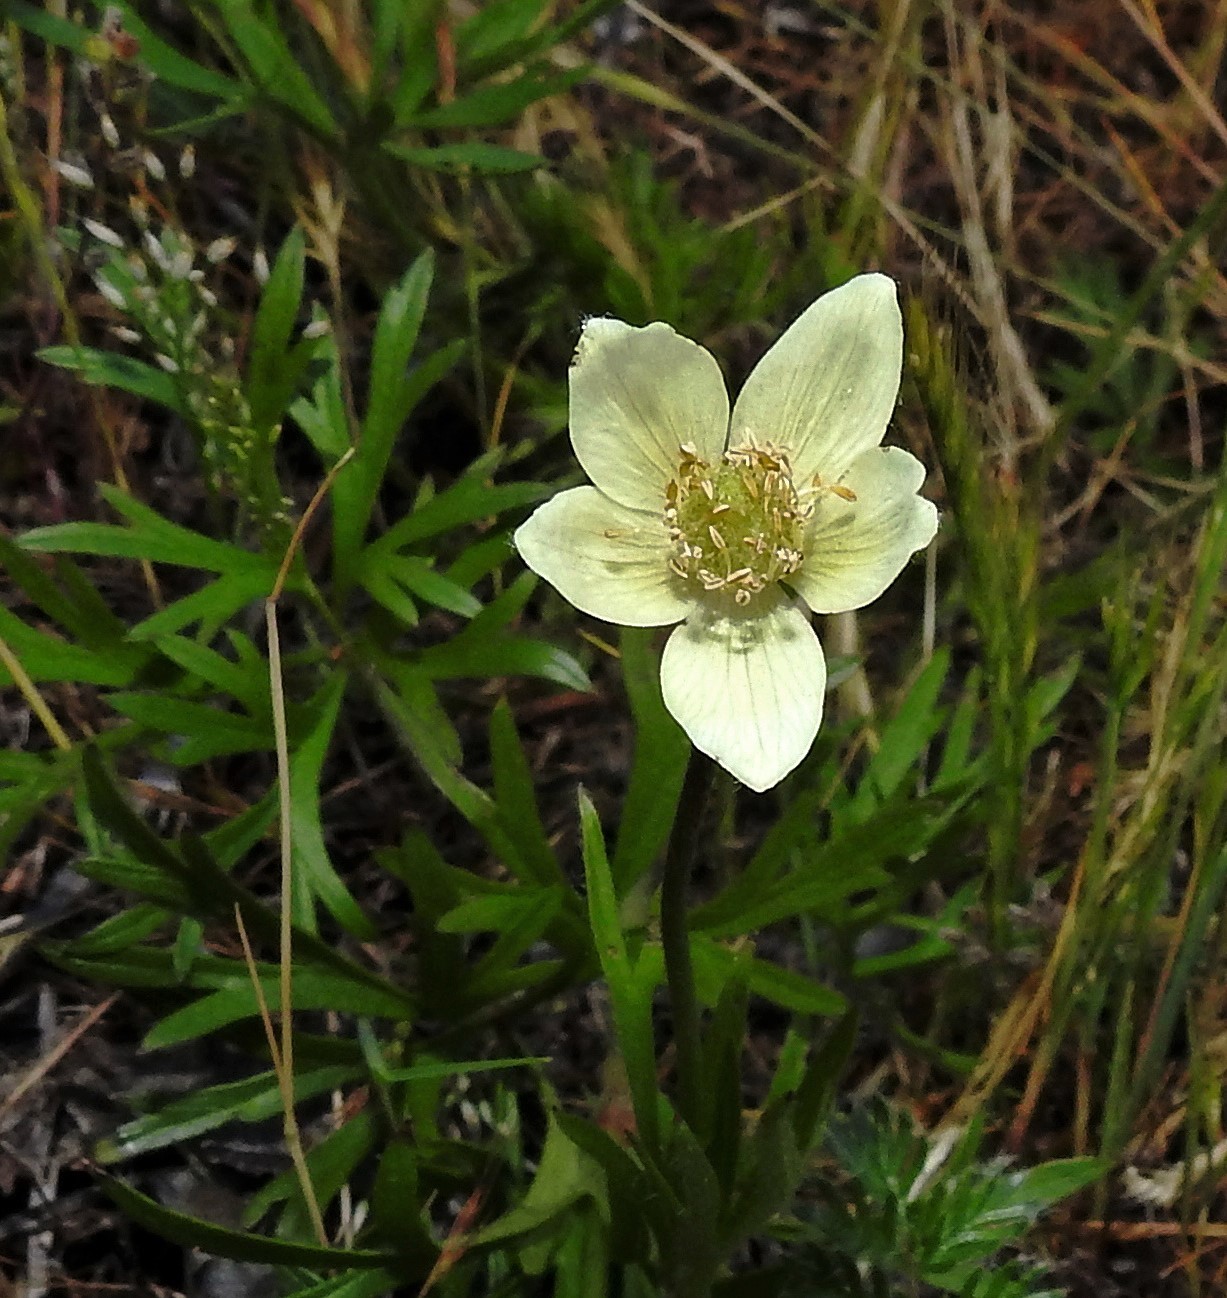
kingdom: Plantae
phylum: Tracheophyta
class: Magnoliopsida
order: Ranunculales
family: Ranunculaceae
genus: Anemone
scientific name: Anemone multifida
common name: Bird's-foot anemone
